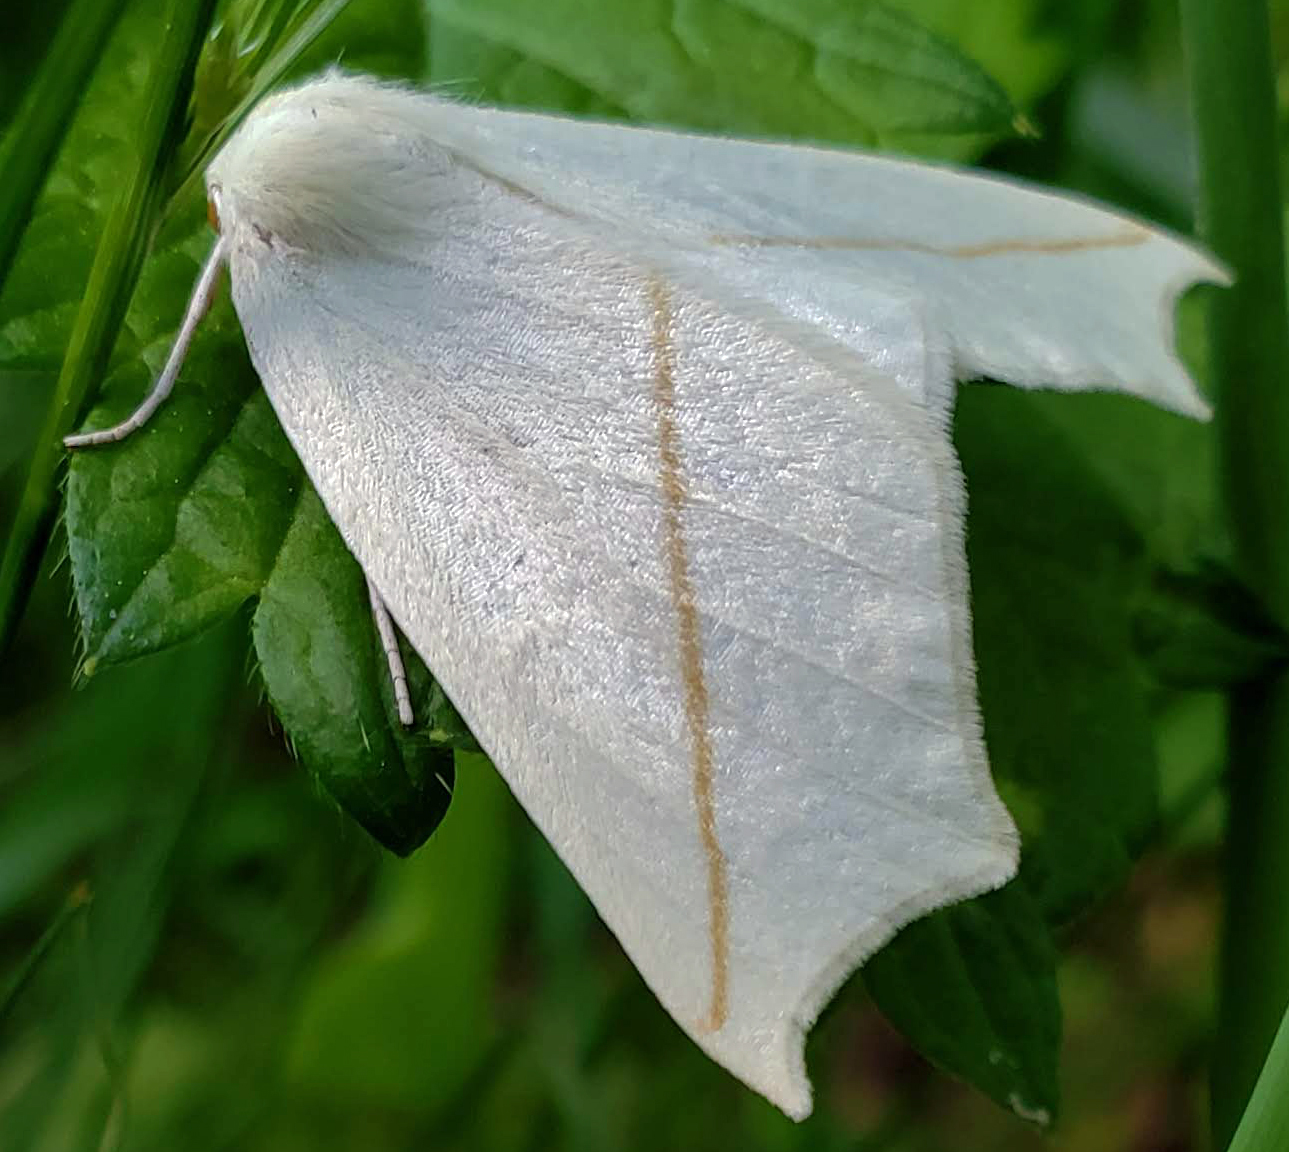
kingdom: Animalia
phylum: Arthropoda
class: Insecta
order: Lepidoptera
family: Geometridae
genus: Tetracis
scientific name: Tetracis cachexiata
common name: White slant-line
